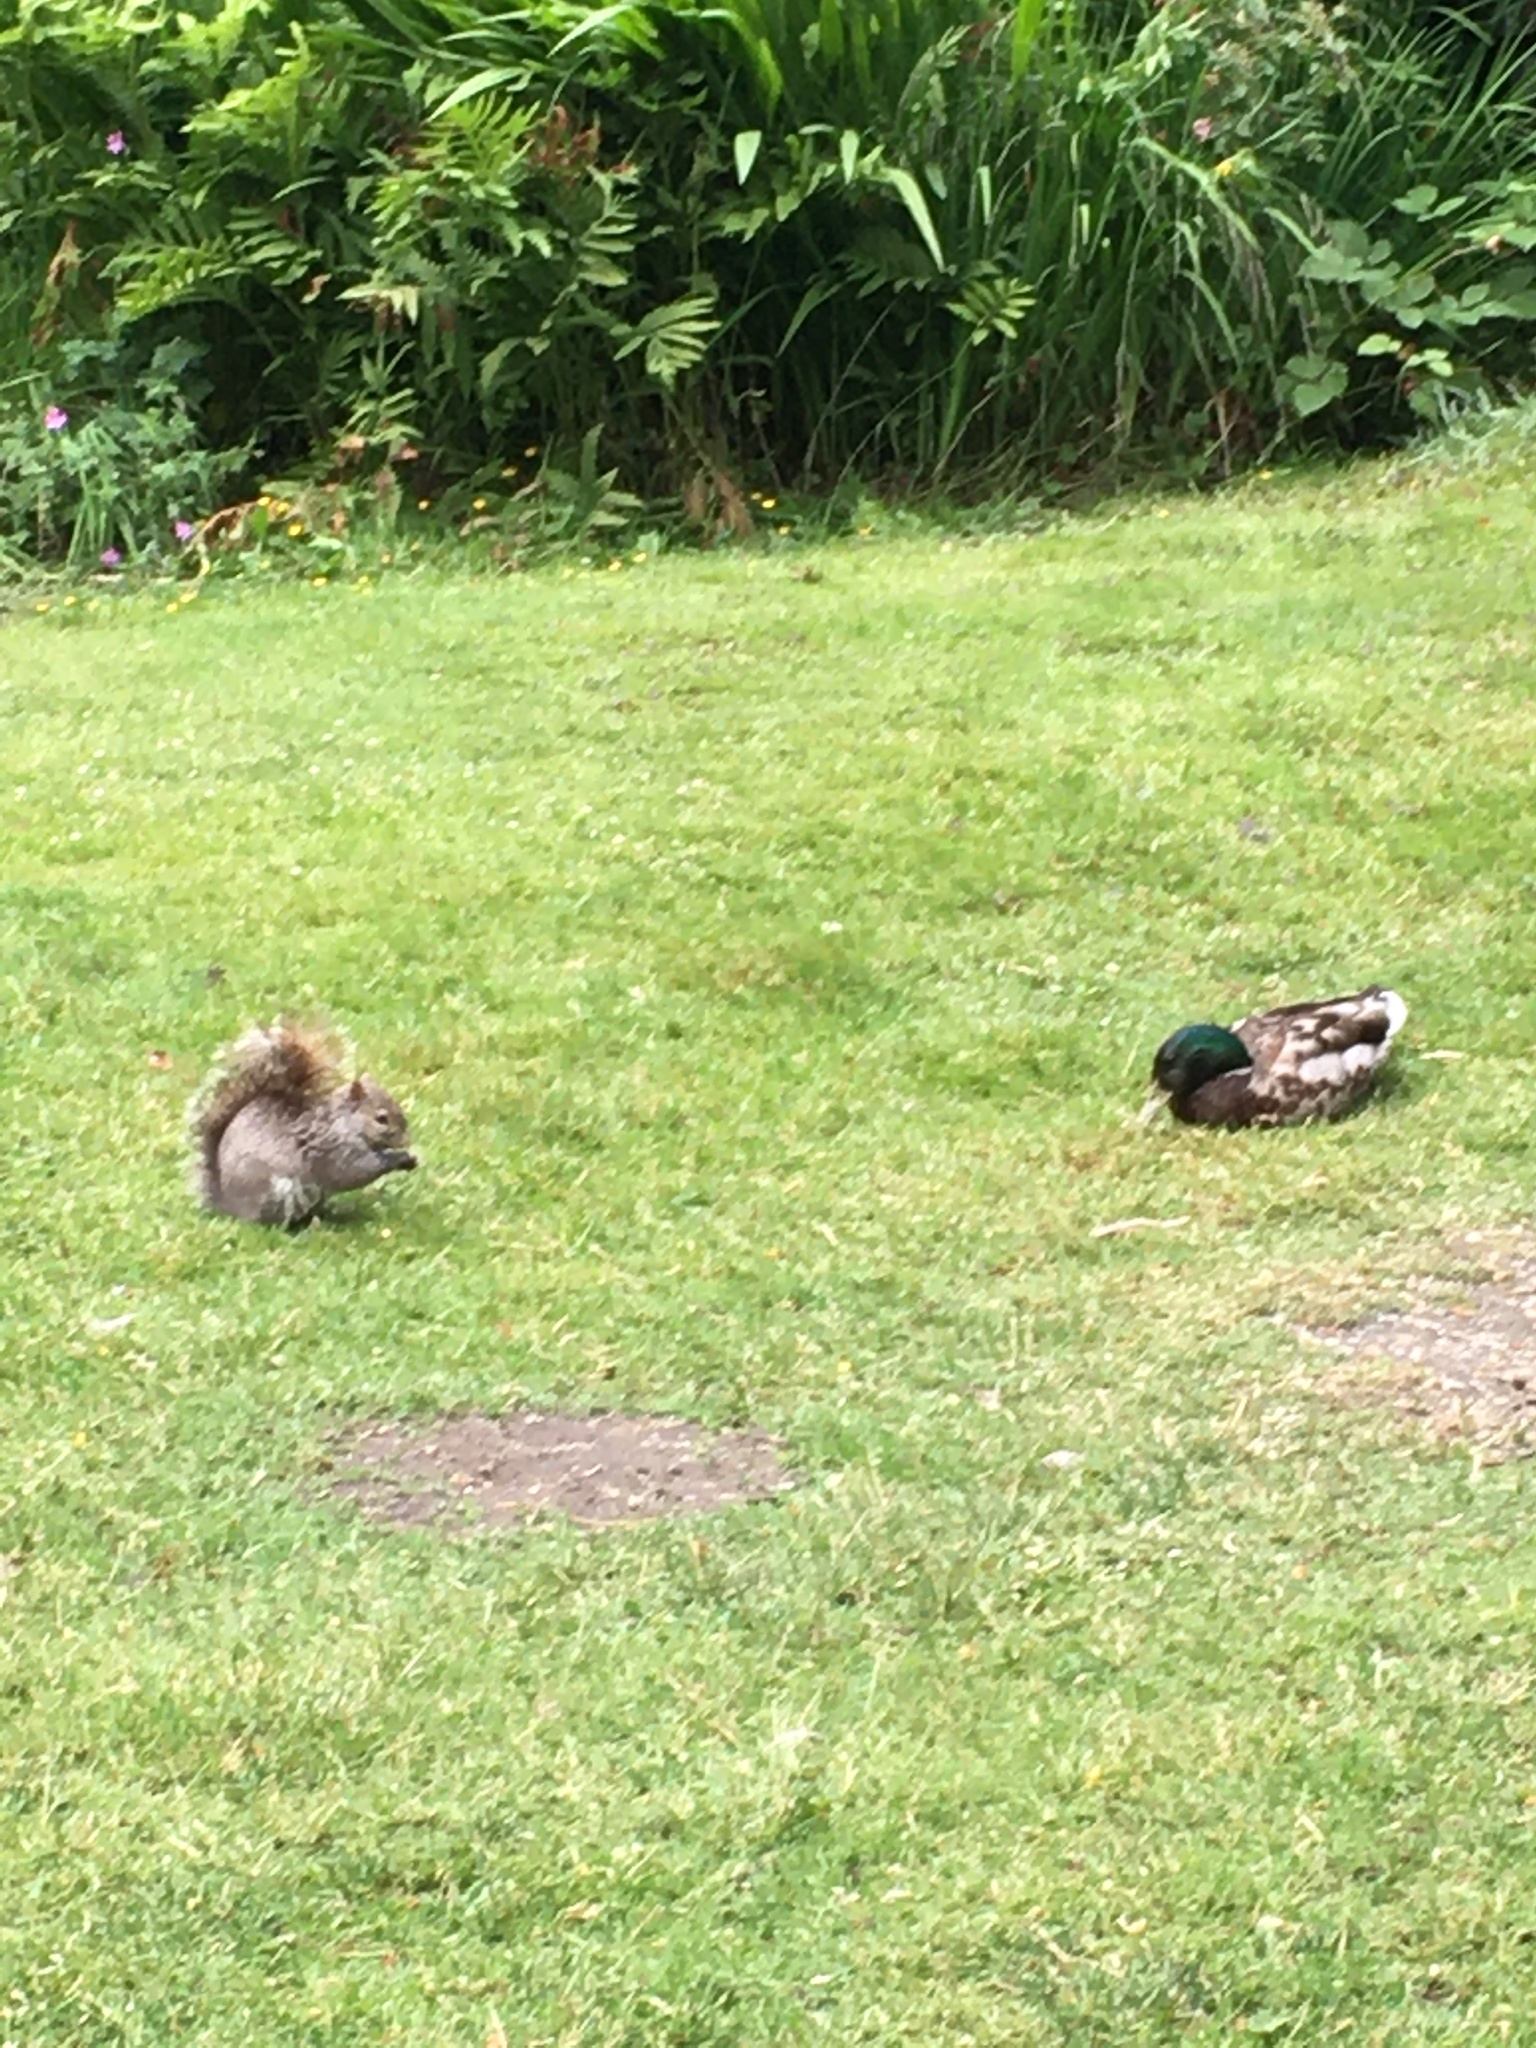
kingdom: Animalia
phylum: Chordata
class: Mammalia
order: Rodentia
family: Sciuridae
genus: Sciurus
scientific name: Sciurus carolinensis
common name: Eastern gray squirrel
